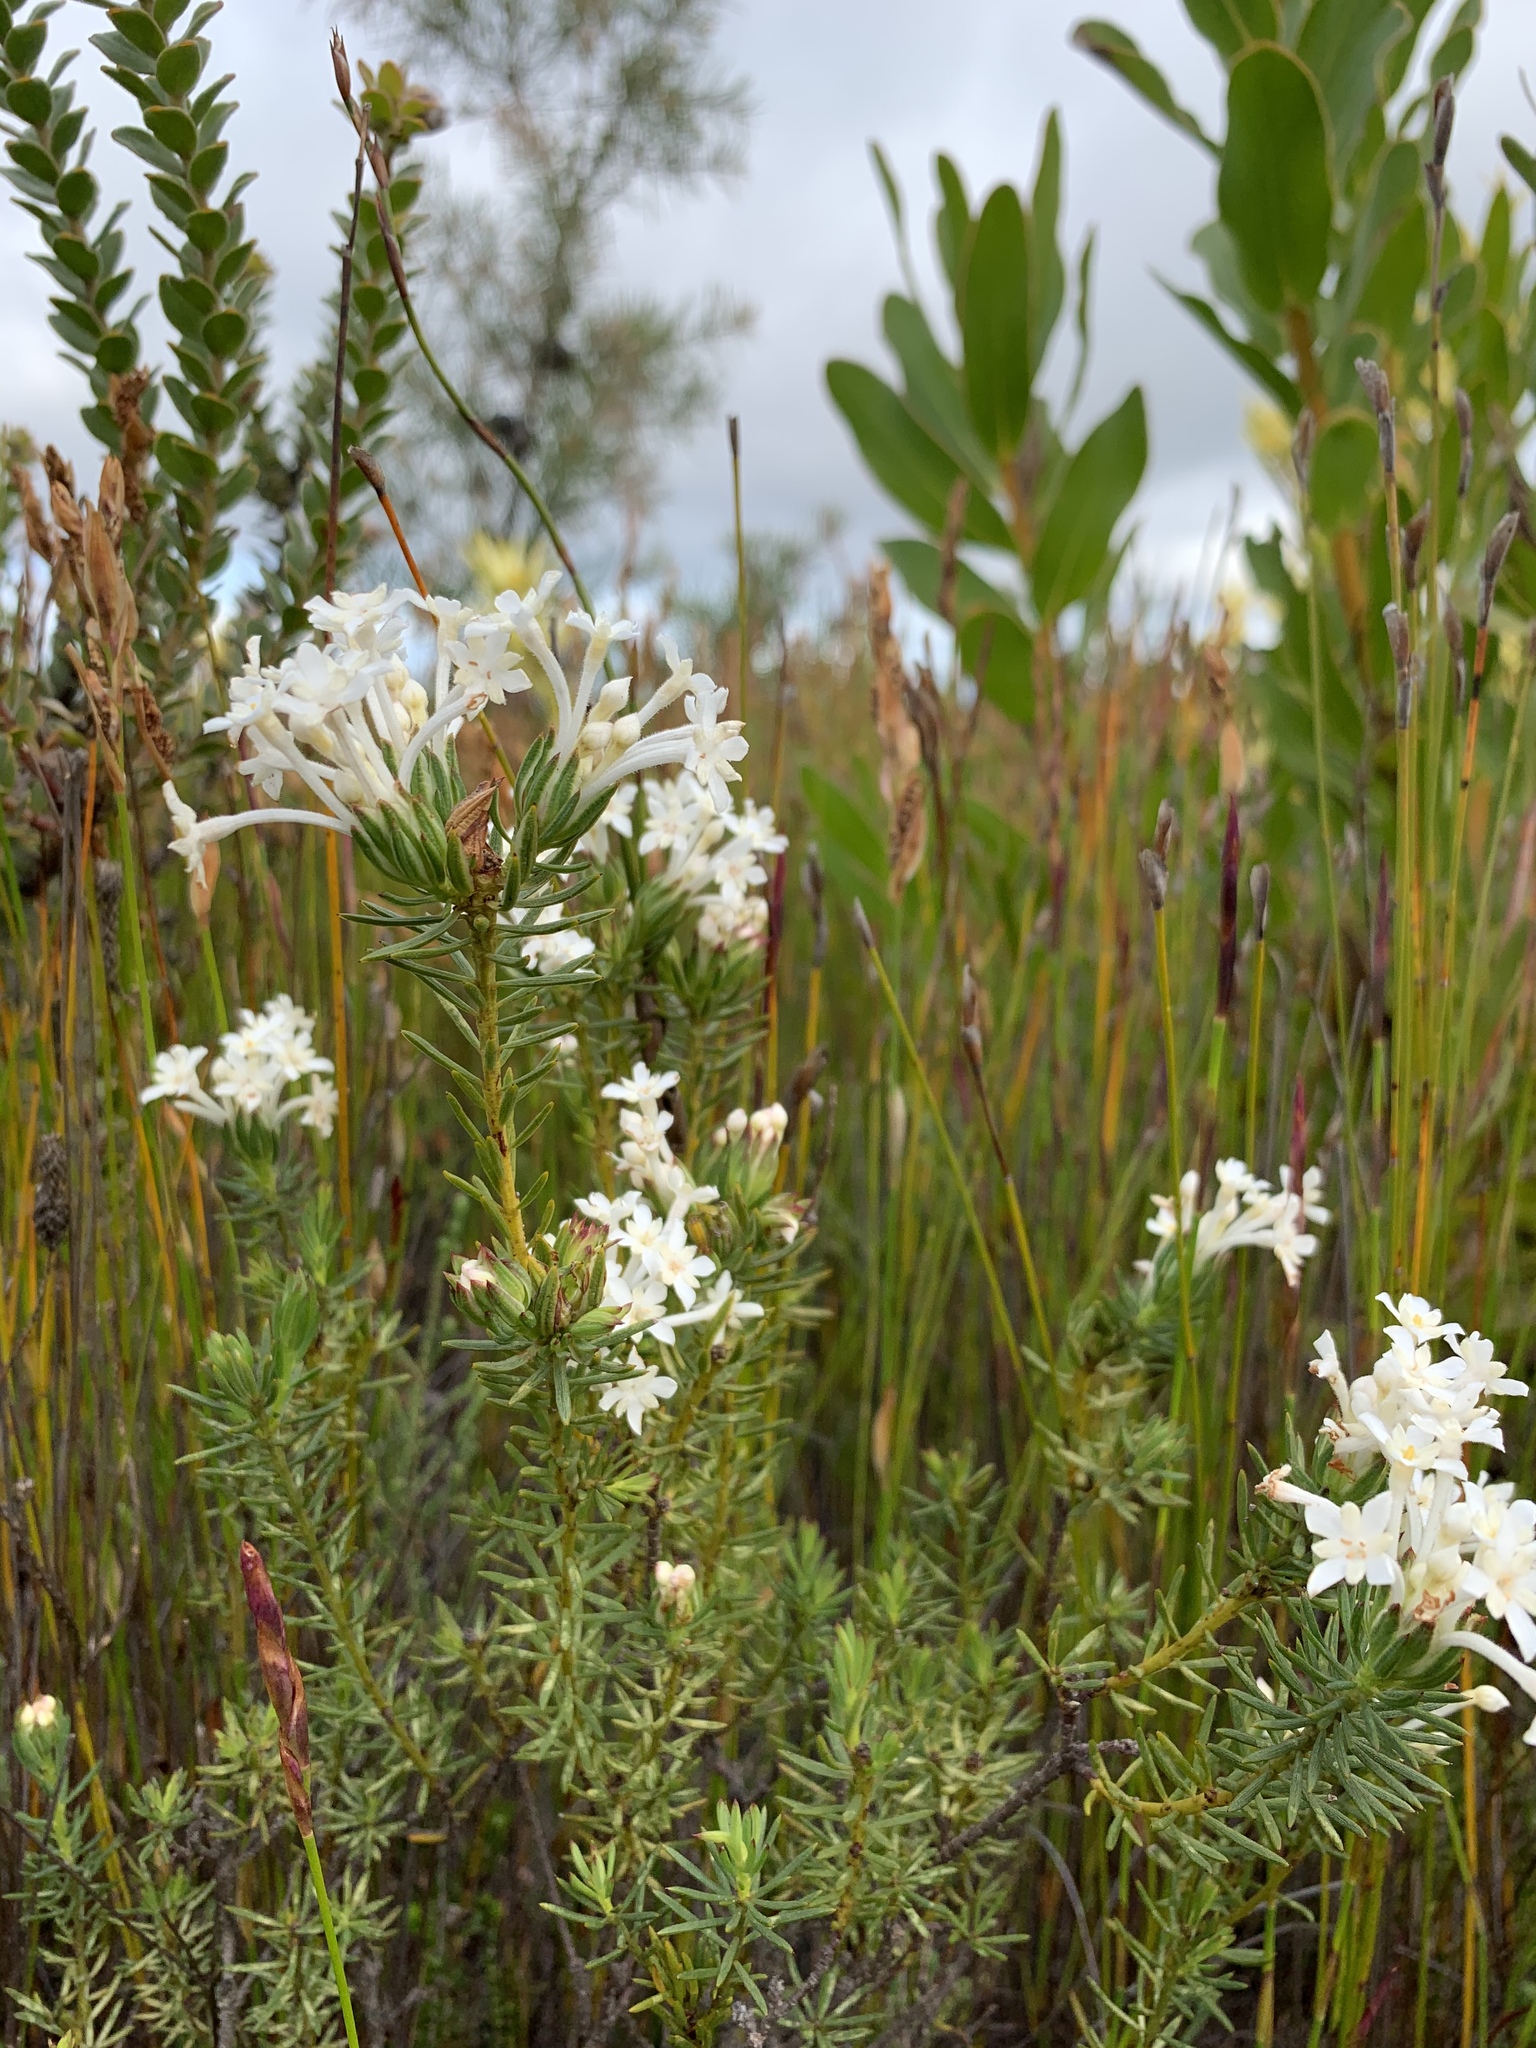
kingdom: Plantae
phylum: Tracheophyta
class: Magnoliopsida
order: Malvales
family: Thymelaeaceae
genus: Gnidia
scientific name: Gnidia pinifolia
